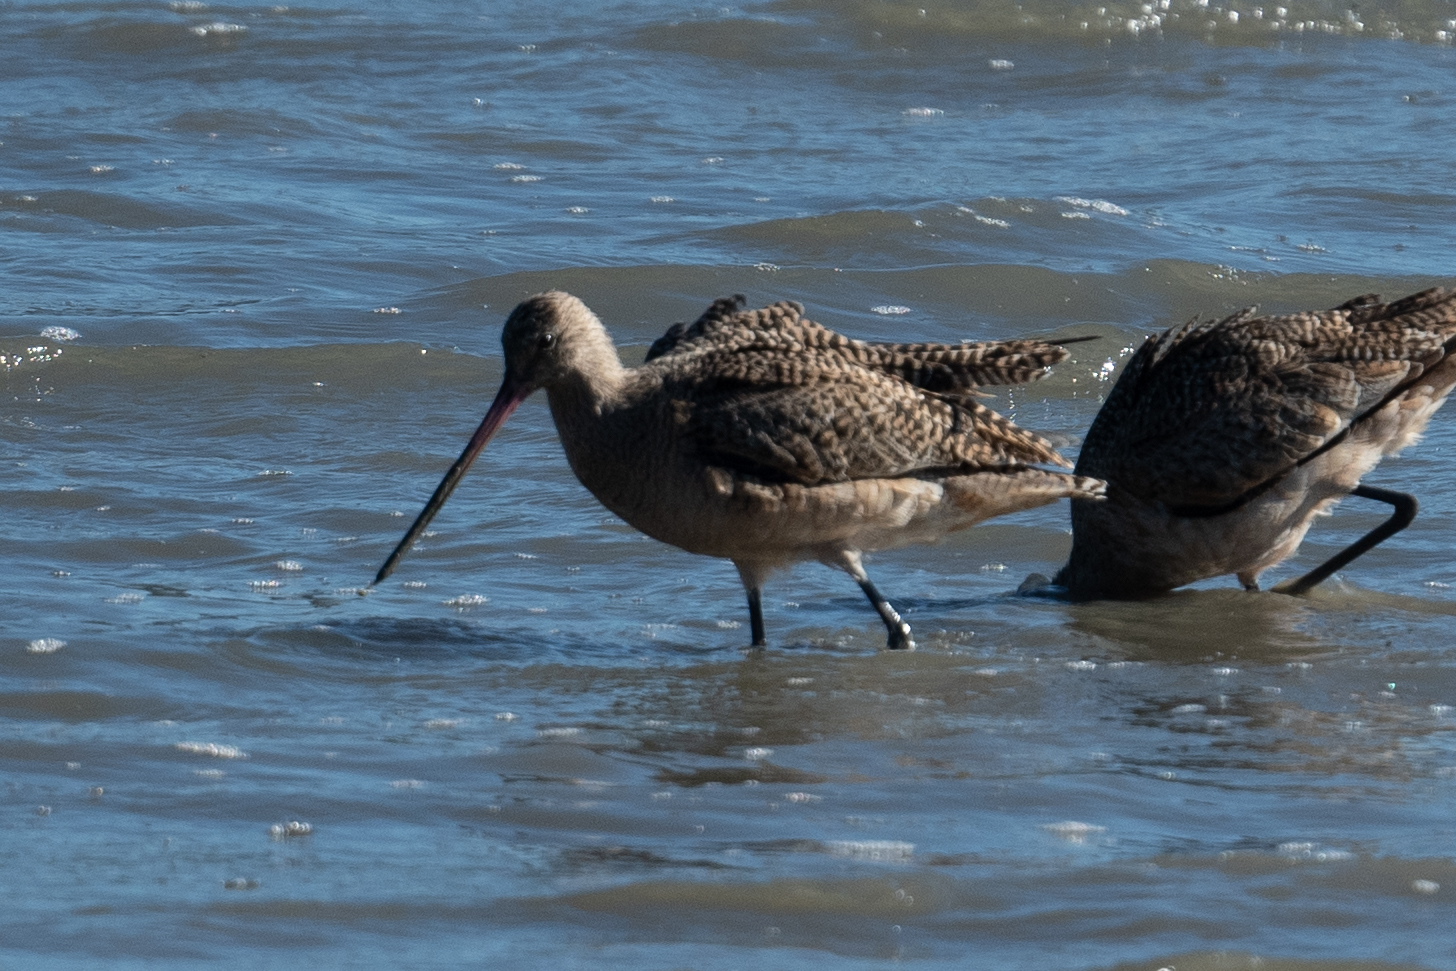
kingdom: Animalia
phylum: Chordata
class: Aves
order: Charadriiformes
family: Scolopacidae
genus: Limosa
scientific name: Limosa fedoa
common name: Marbled godwit
